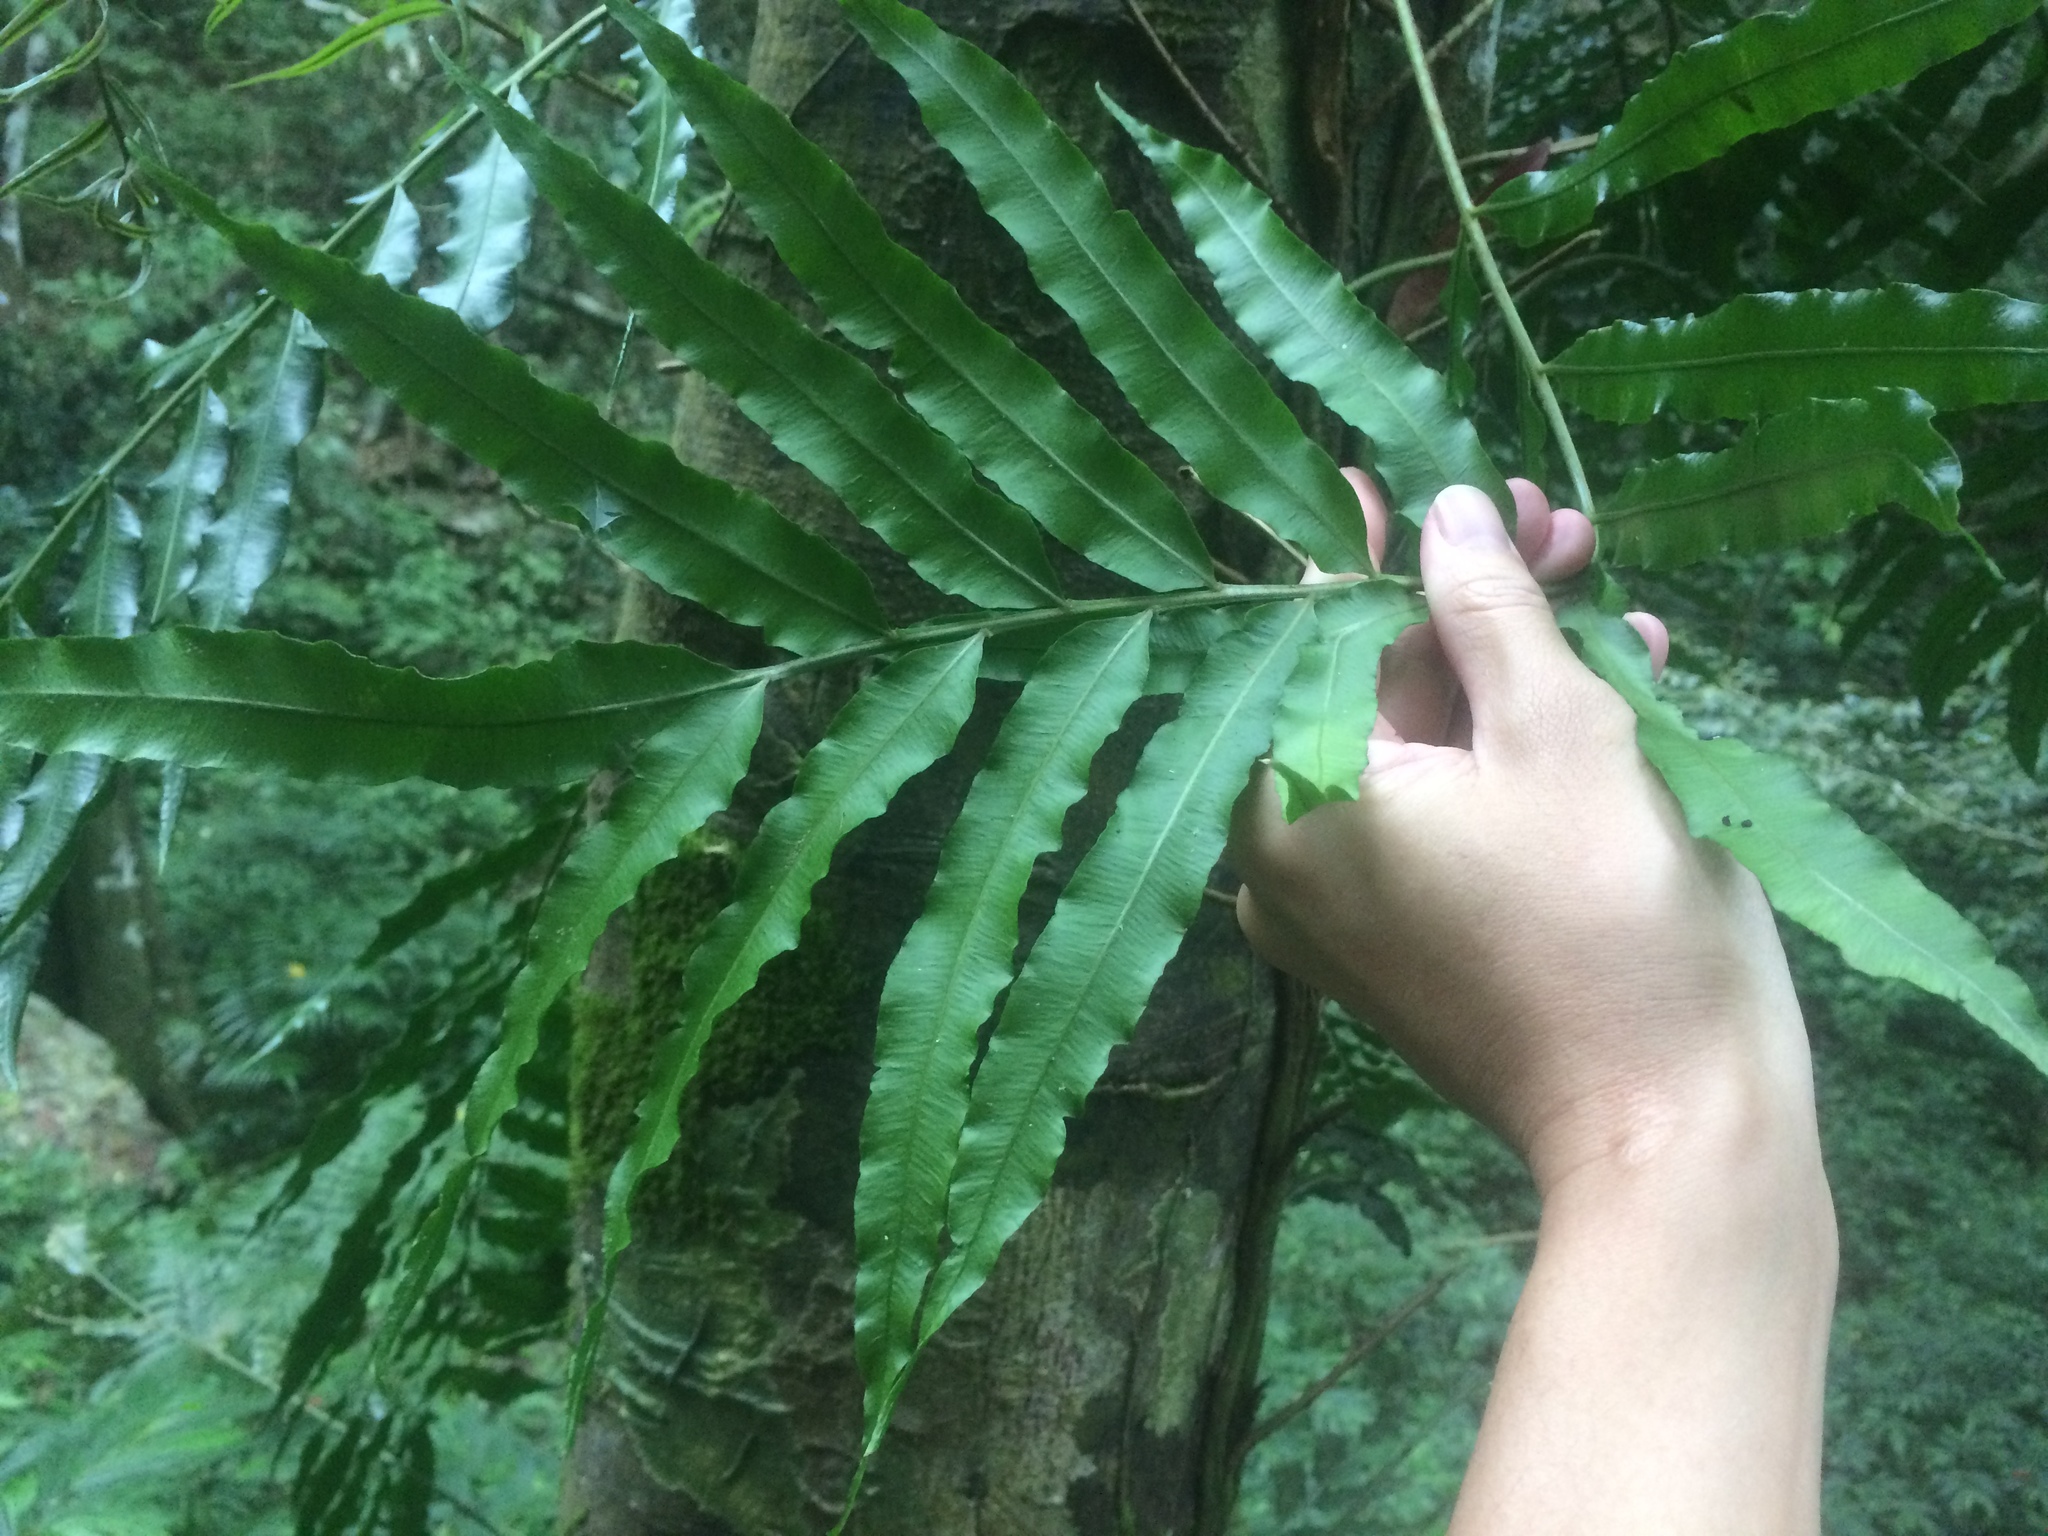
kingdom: Plantae
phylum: Tracheophyta
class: Polypodiopsida
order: Polypodiales
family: Lomariopsidaceae
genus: Lomariopsis
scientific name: Lomariopsis boninensis
